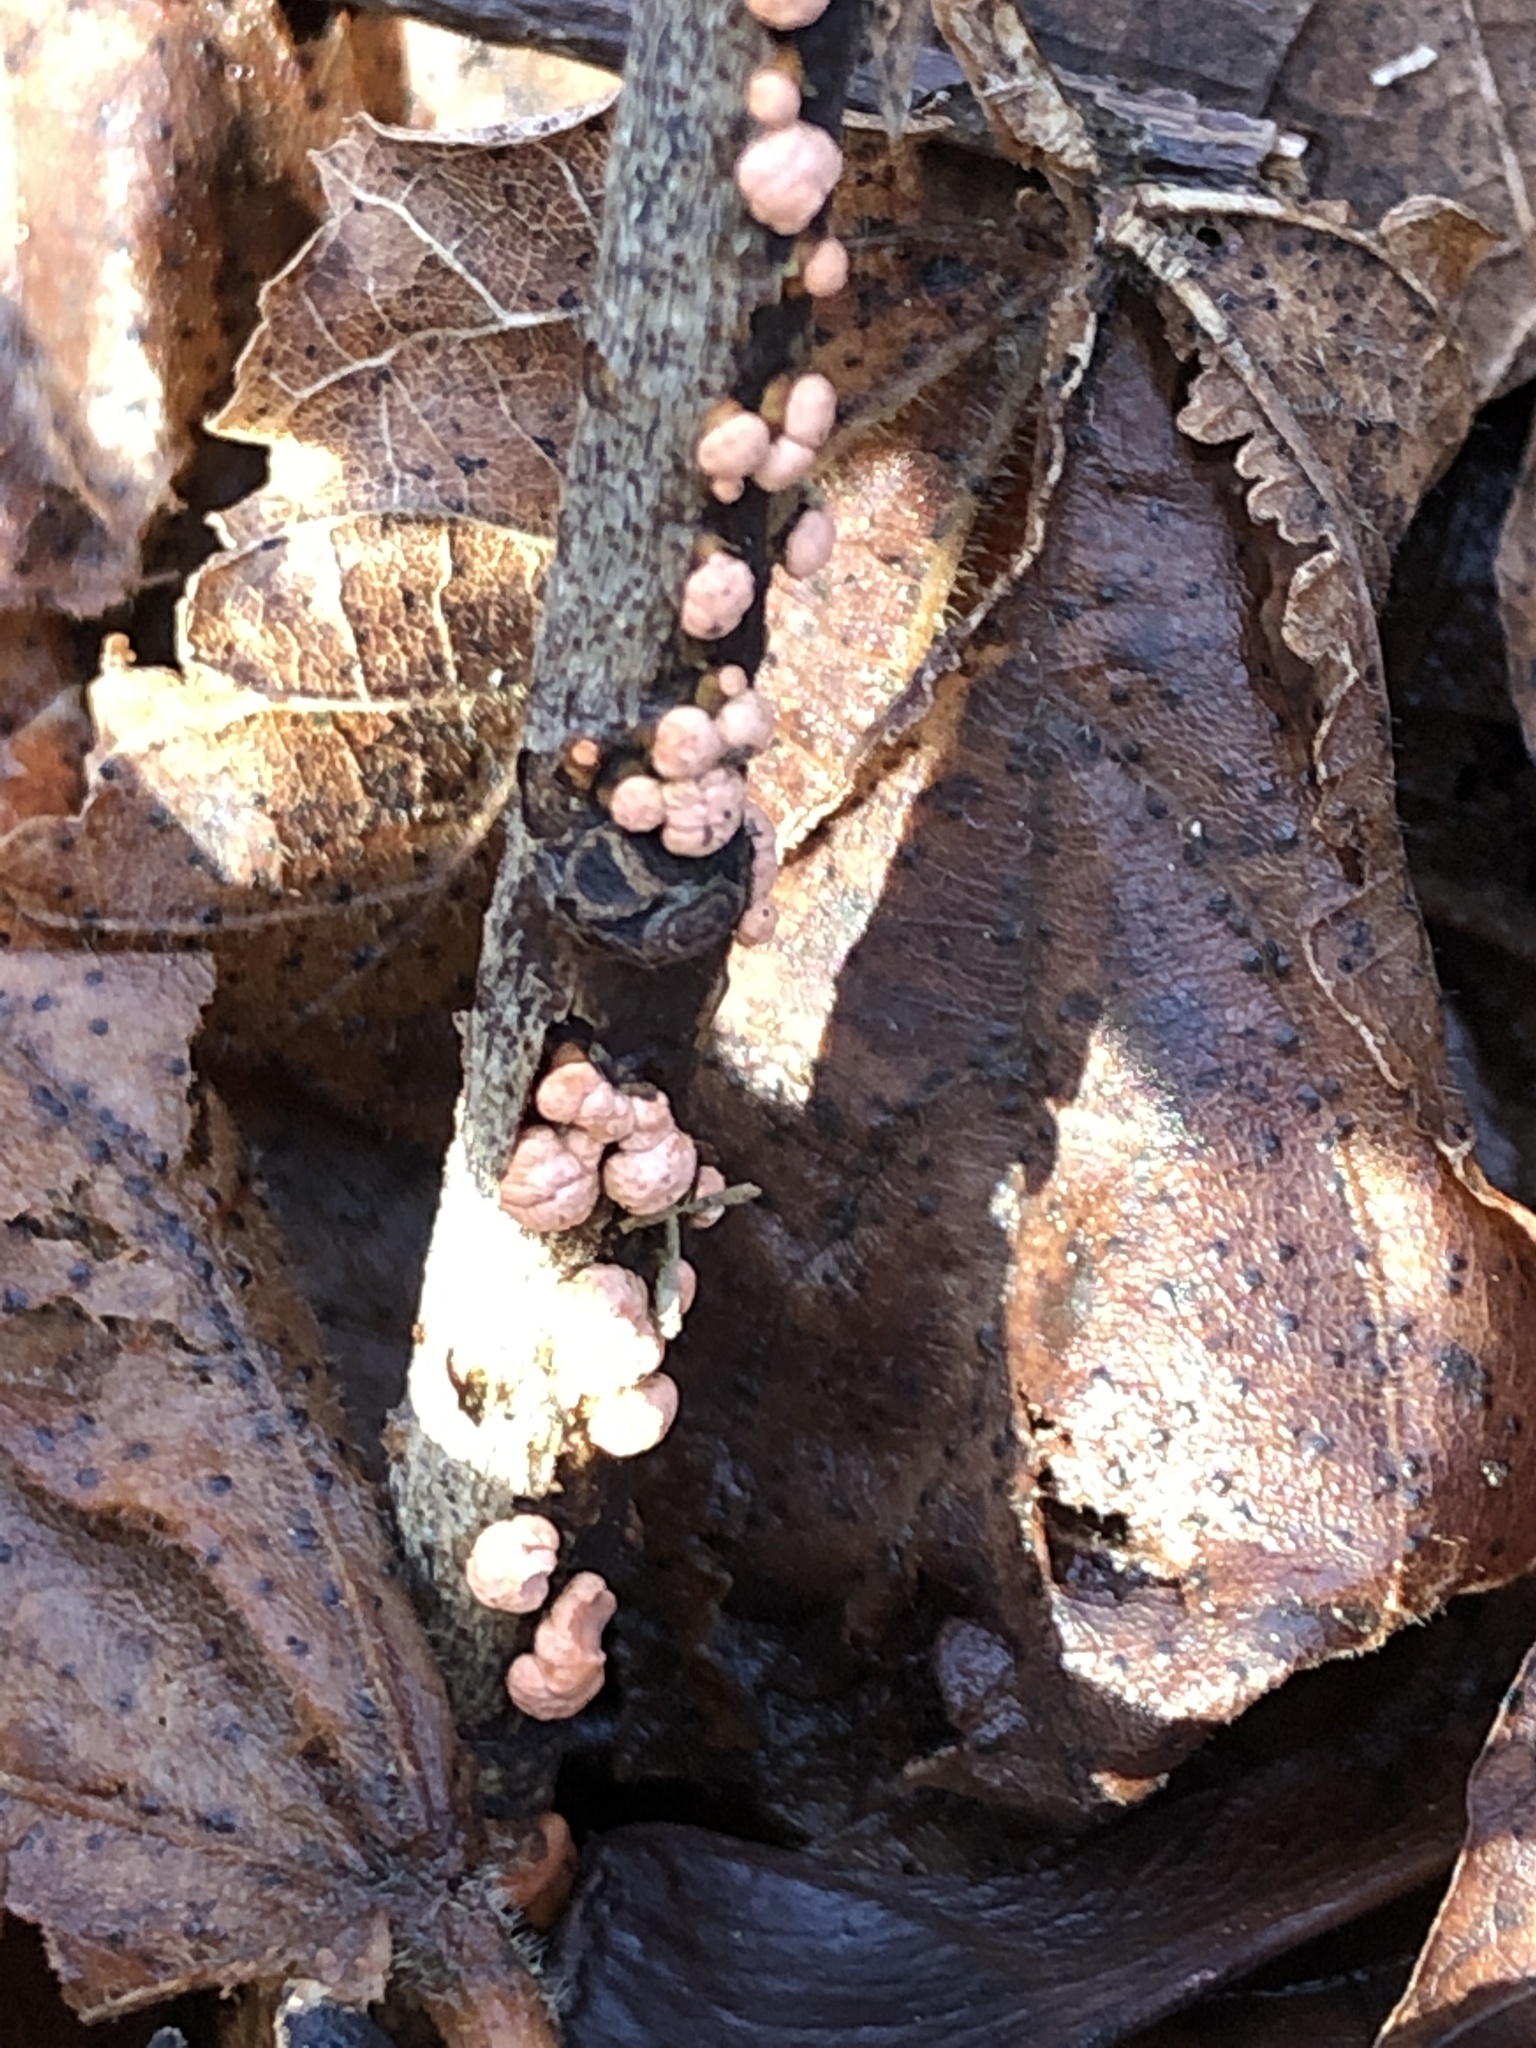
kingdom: Fungi
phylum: Ascomycota
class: Sordariomycetes
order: Hypocreales
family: Nectriaceae
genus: Nectria
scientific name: Nectria cinnabarina
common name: Coral spot
